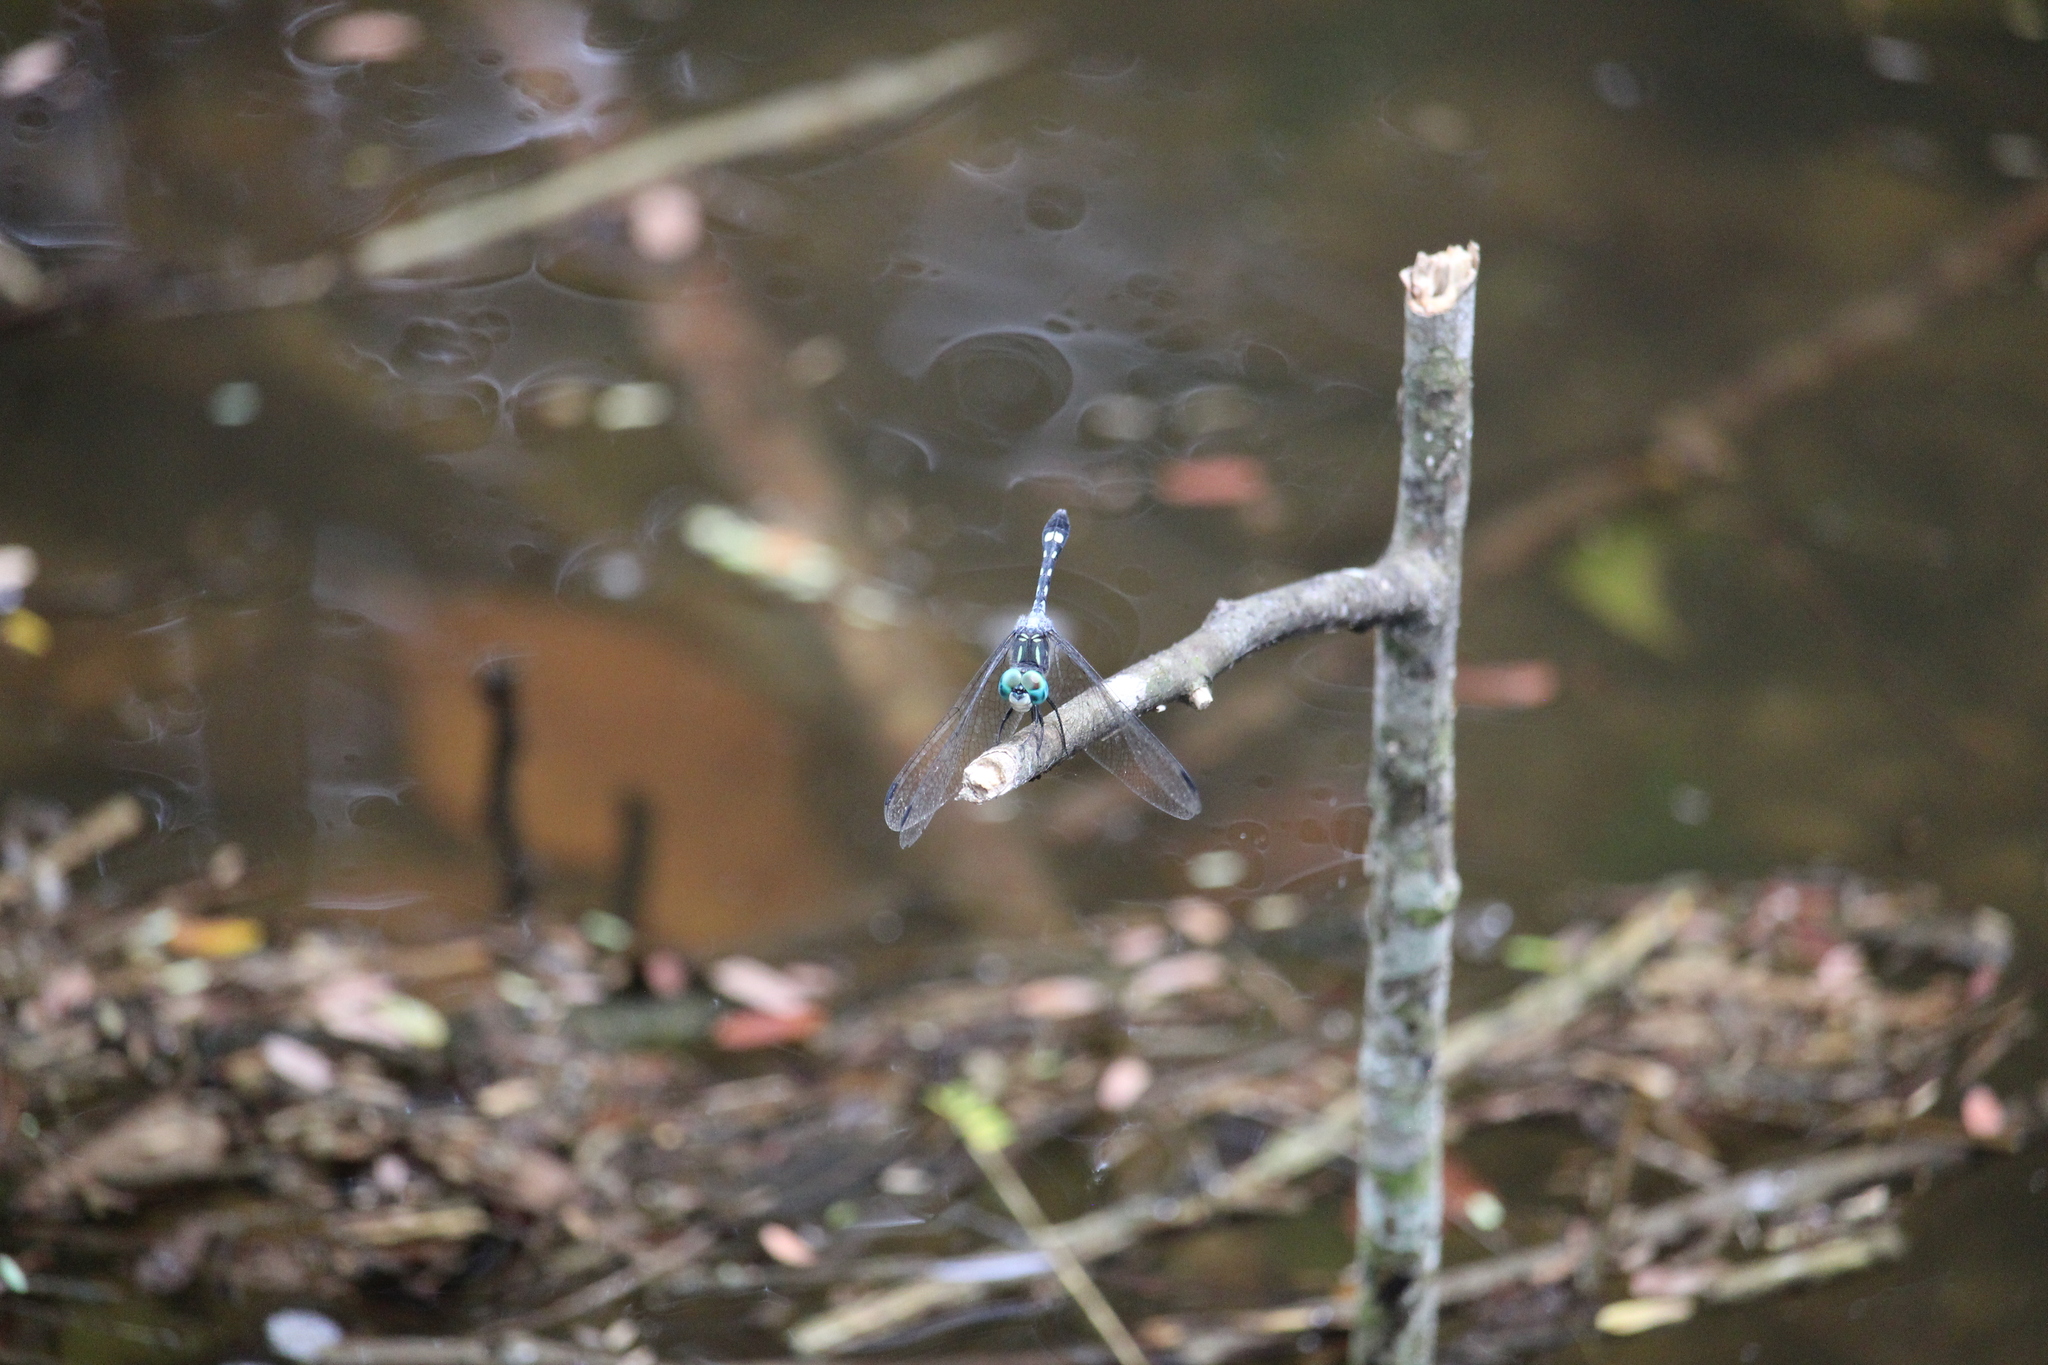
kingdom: Animalia
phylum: Arthropoda
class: Insecta
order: Odonata
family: Libellulidae
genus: Micrathyria
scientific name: Micrathyria hagenii
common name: Thornbush dasher
